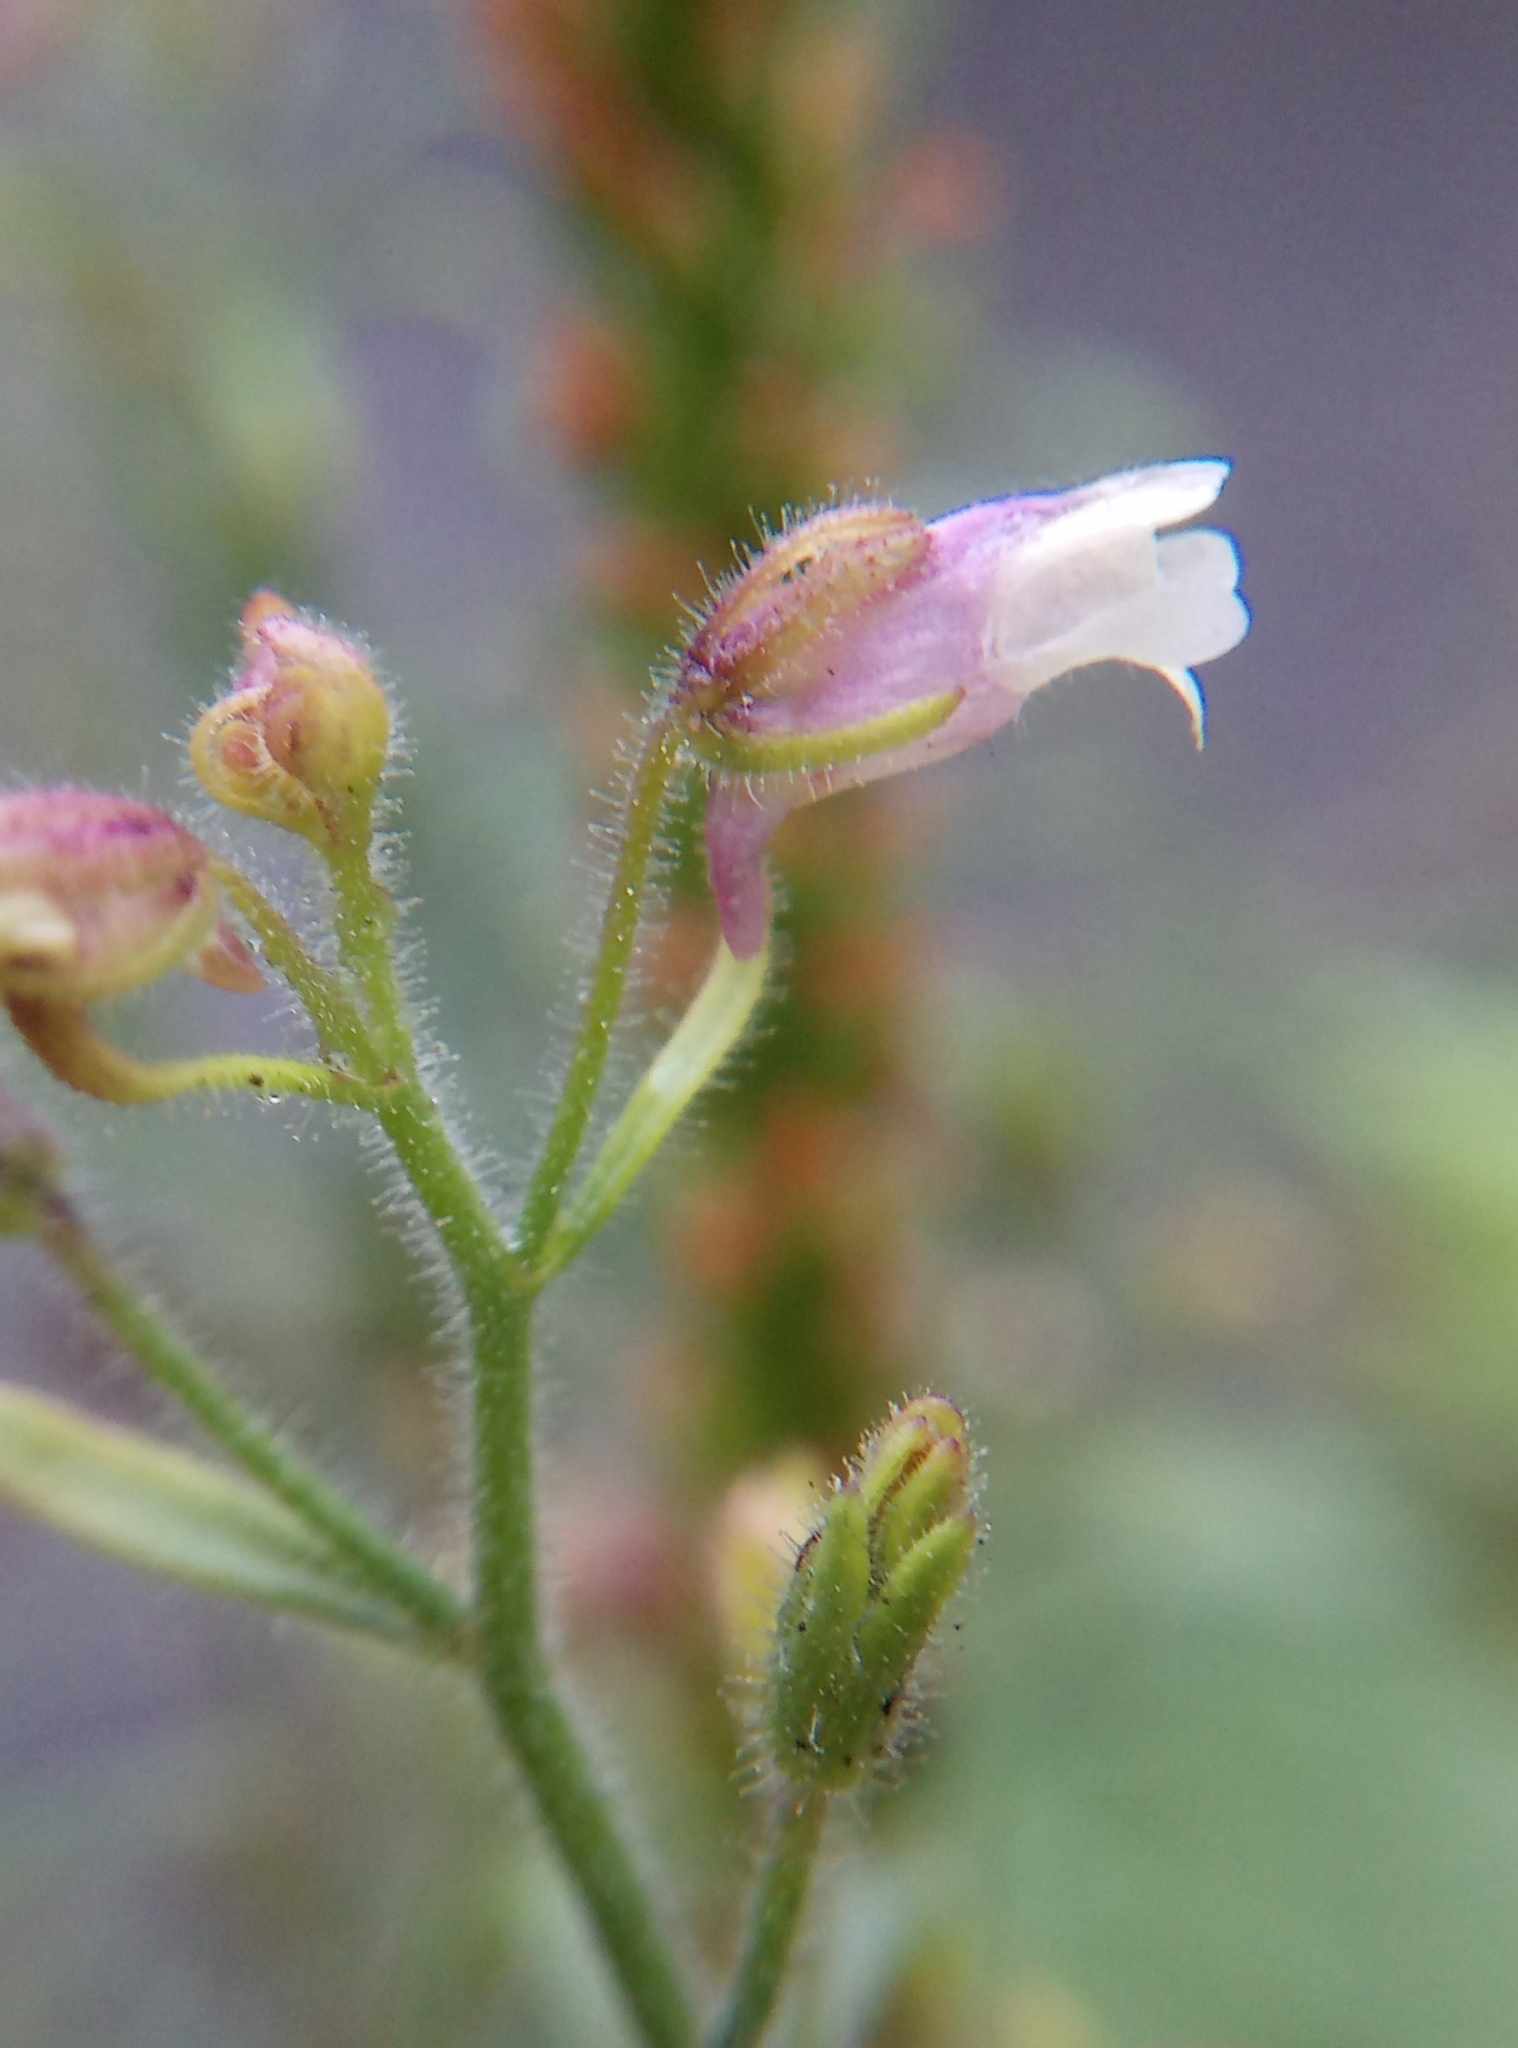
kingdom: Plantae
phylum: Tracheophyta
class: Magnoliopsida
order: Lamiales
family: Plantaginaceae
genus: Chaenorhinum
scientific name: Chaenorhinum minus
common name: Dwarf snapdragon
